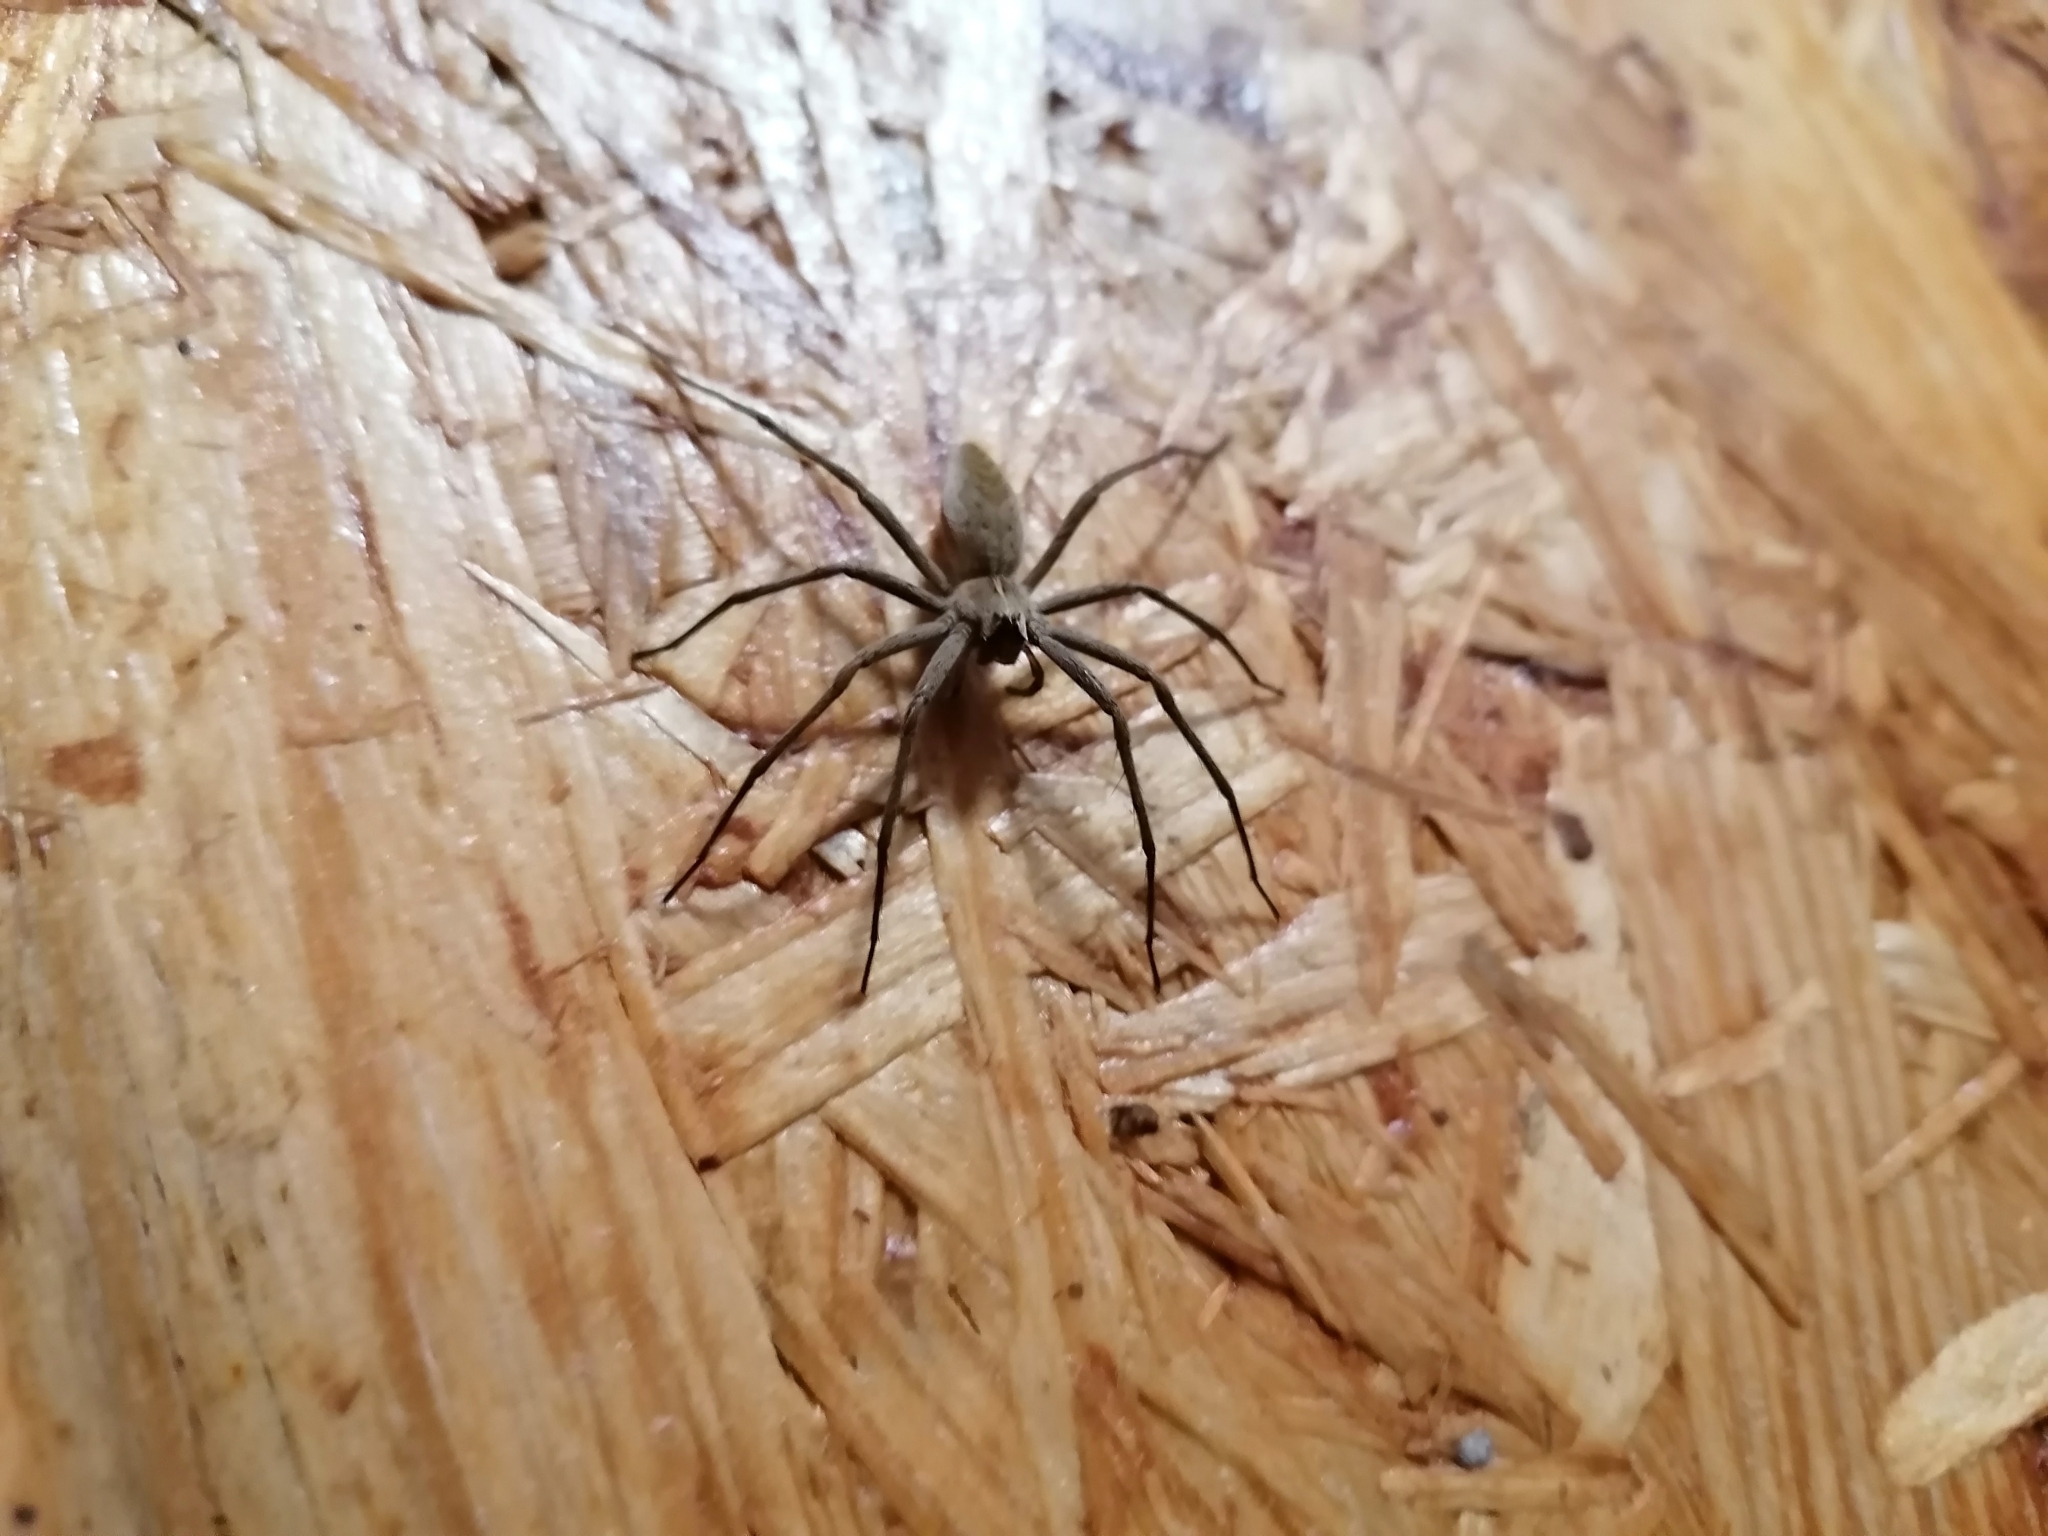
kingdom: Animalia
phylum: Arthropoda
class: Arachnida
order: Araneae
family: Pisauridae
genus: Pisaura
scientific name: Pisaura mirabilis
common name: Tent spider
